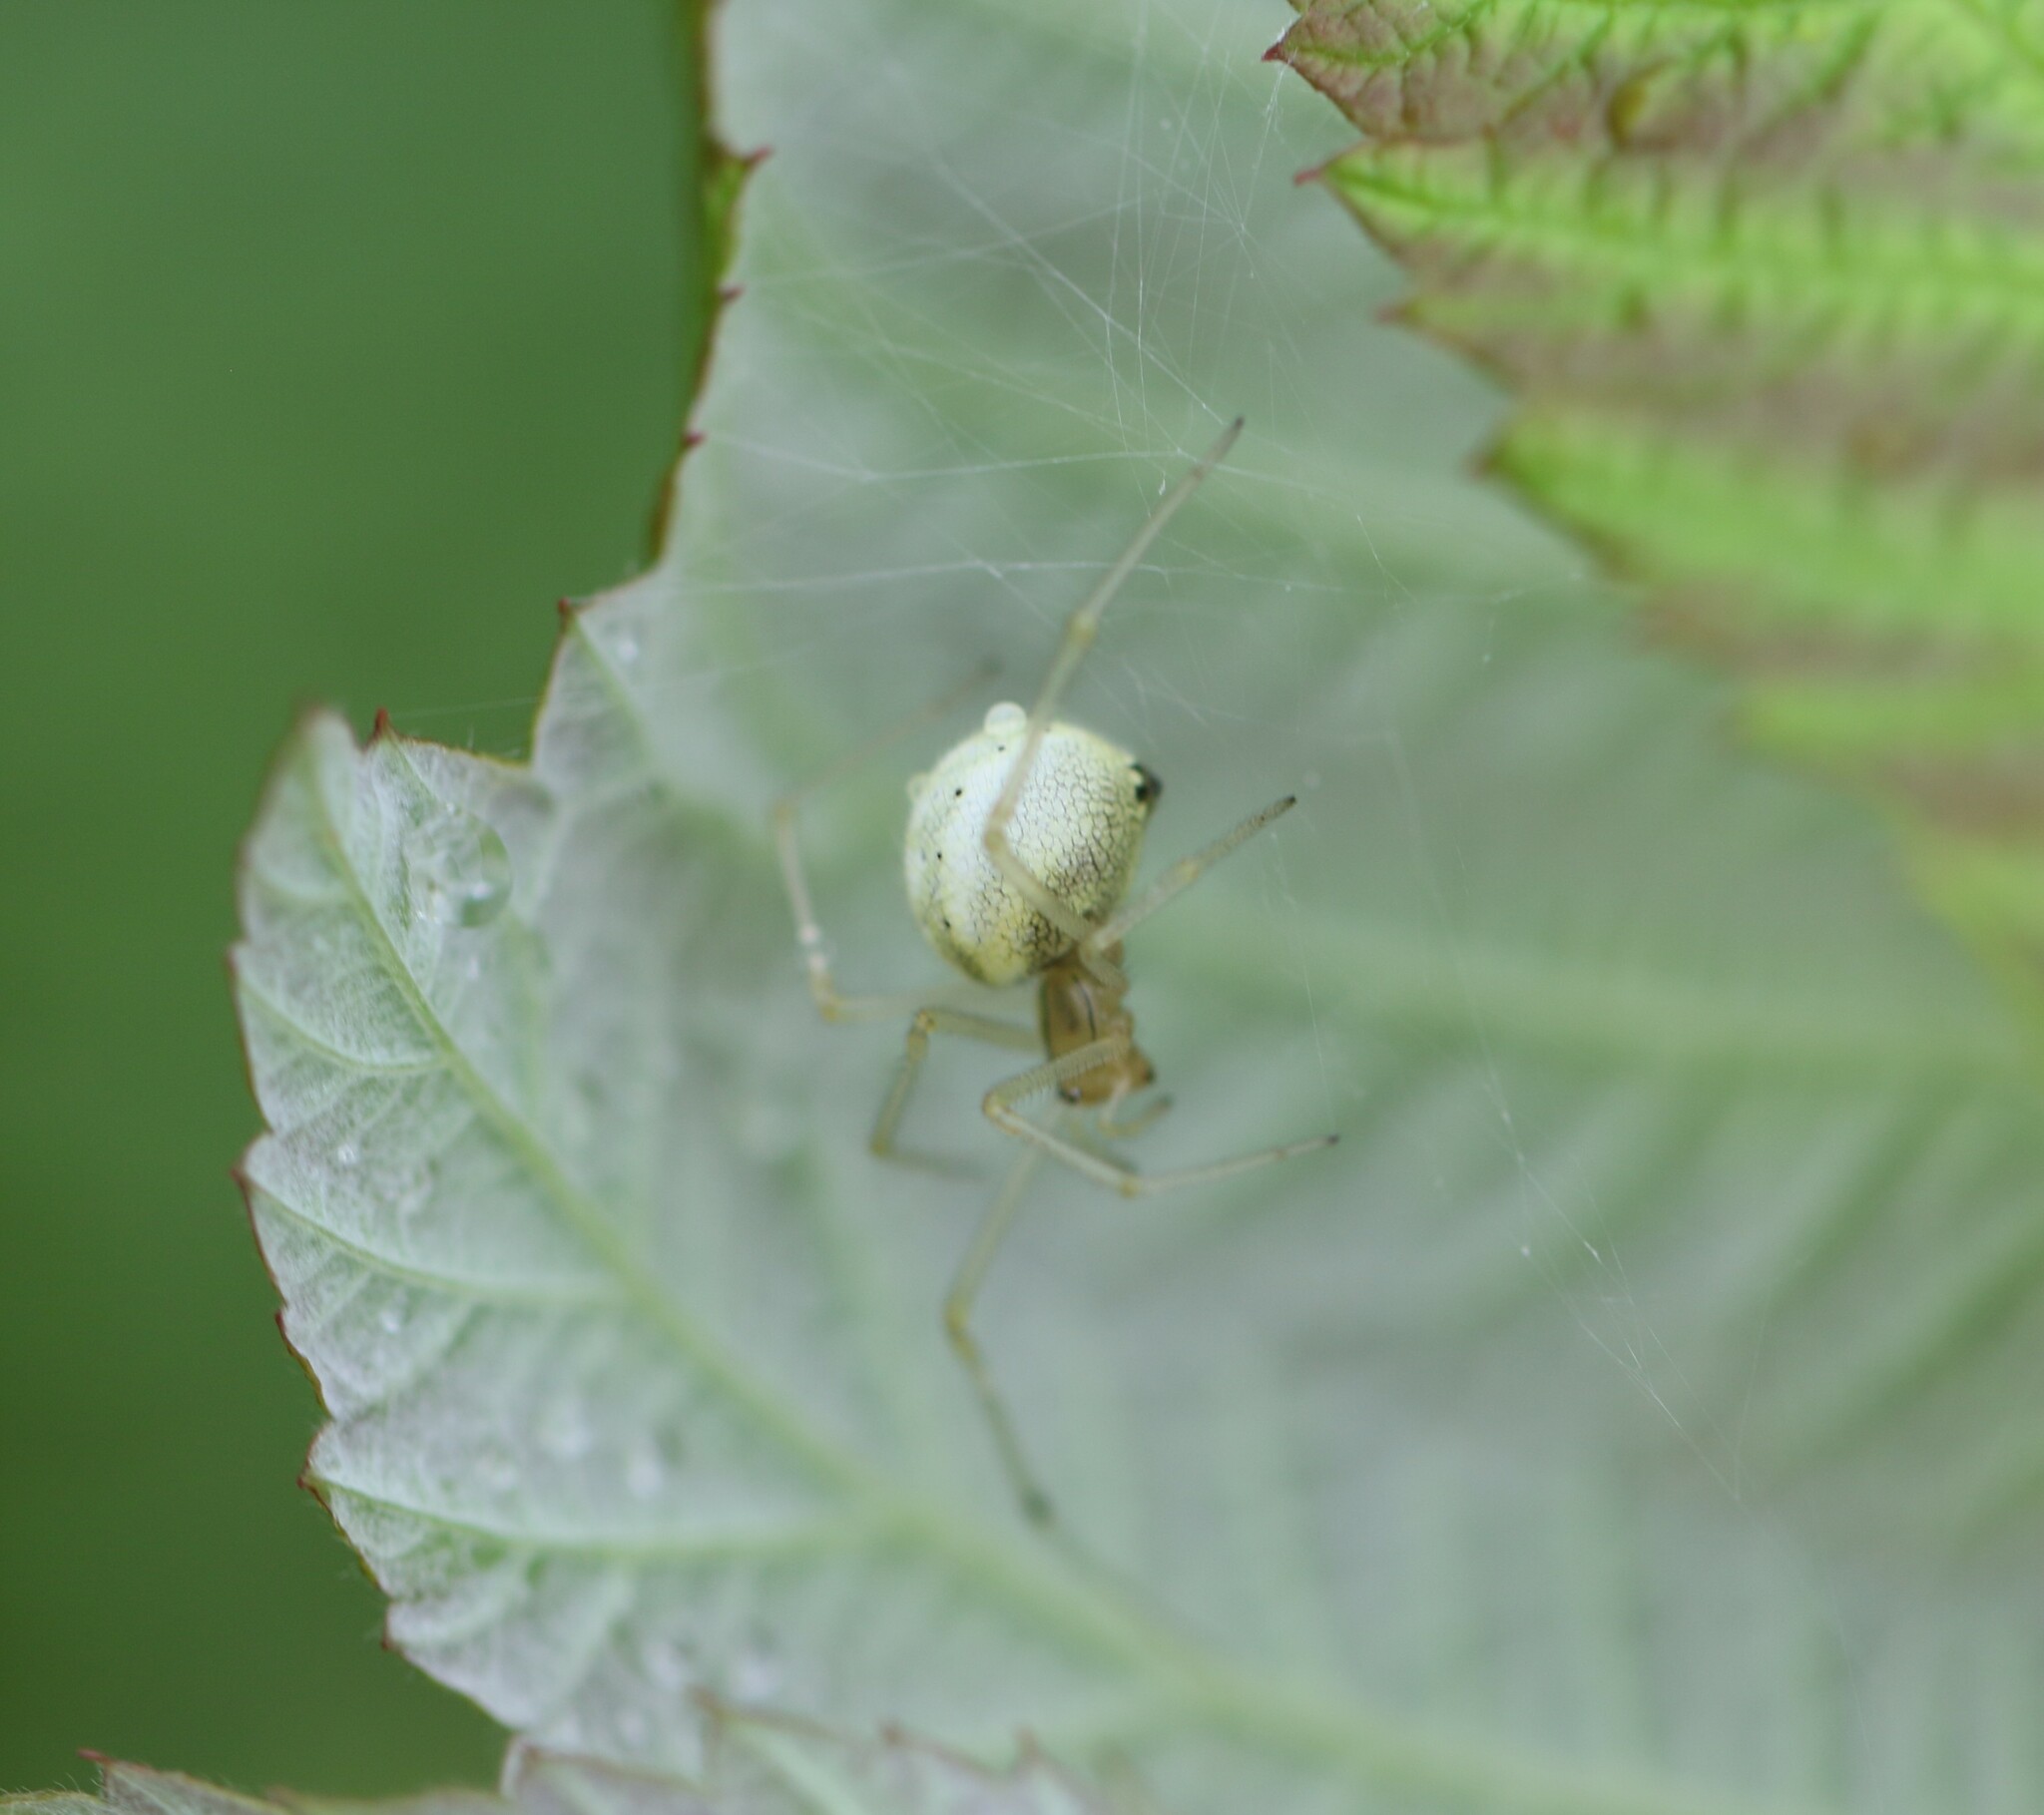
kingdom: Animalia
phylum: Arthropoda
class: Arachnida
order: Araneae
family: Theridiidae
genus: Enoplognatha
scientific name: Enoplognatha ovata
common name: Common candy-striped spider
